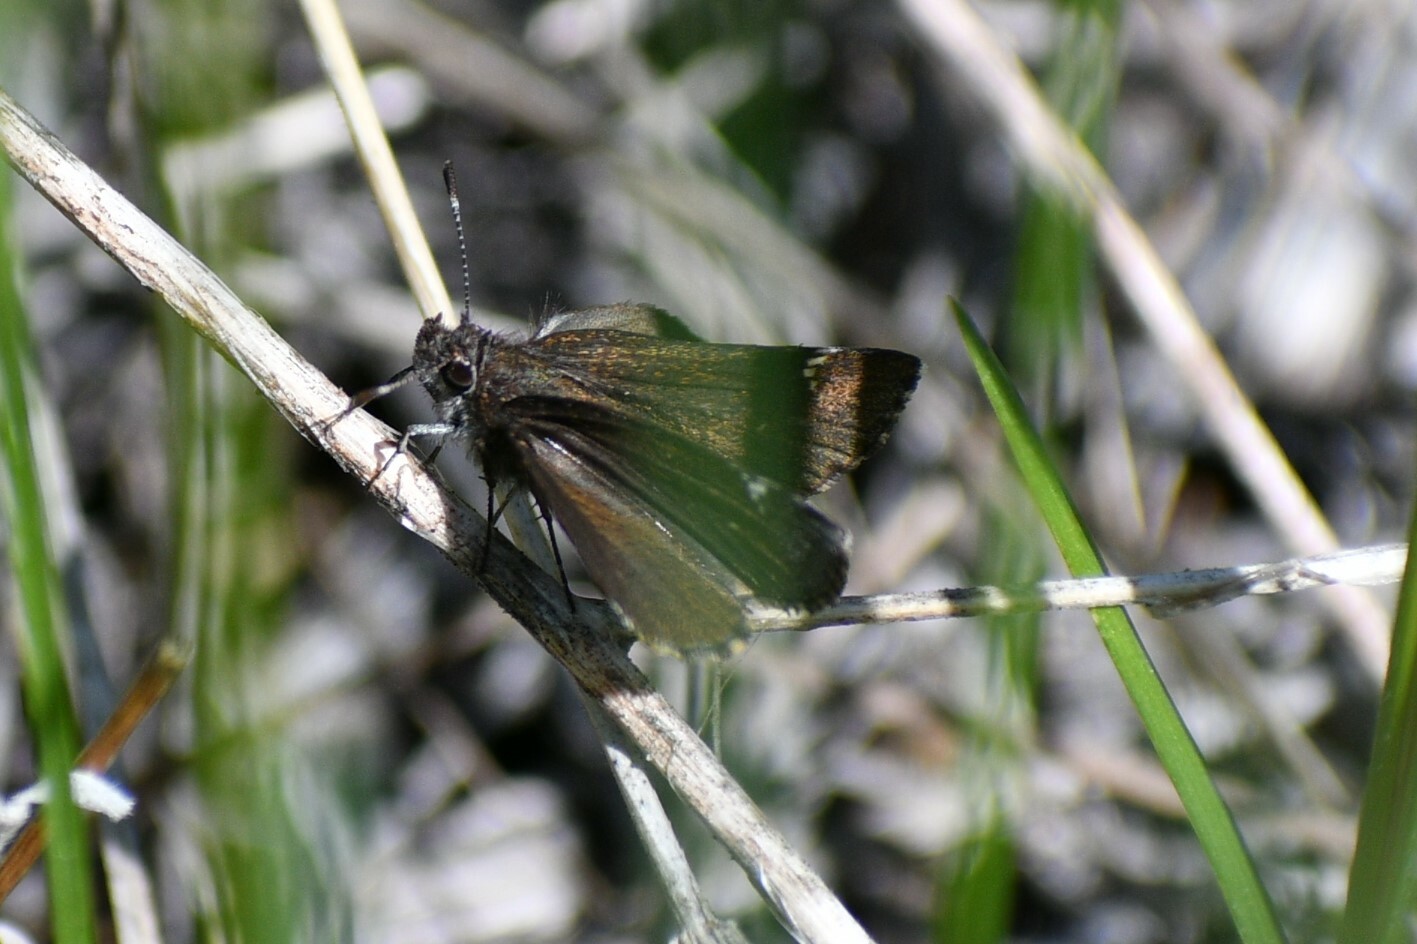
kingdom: Animalia
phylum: Arthropoda
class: Insecta
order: Lepidoptera
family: Hesperiidae
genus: Mastor
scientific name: Mastor vialis
